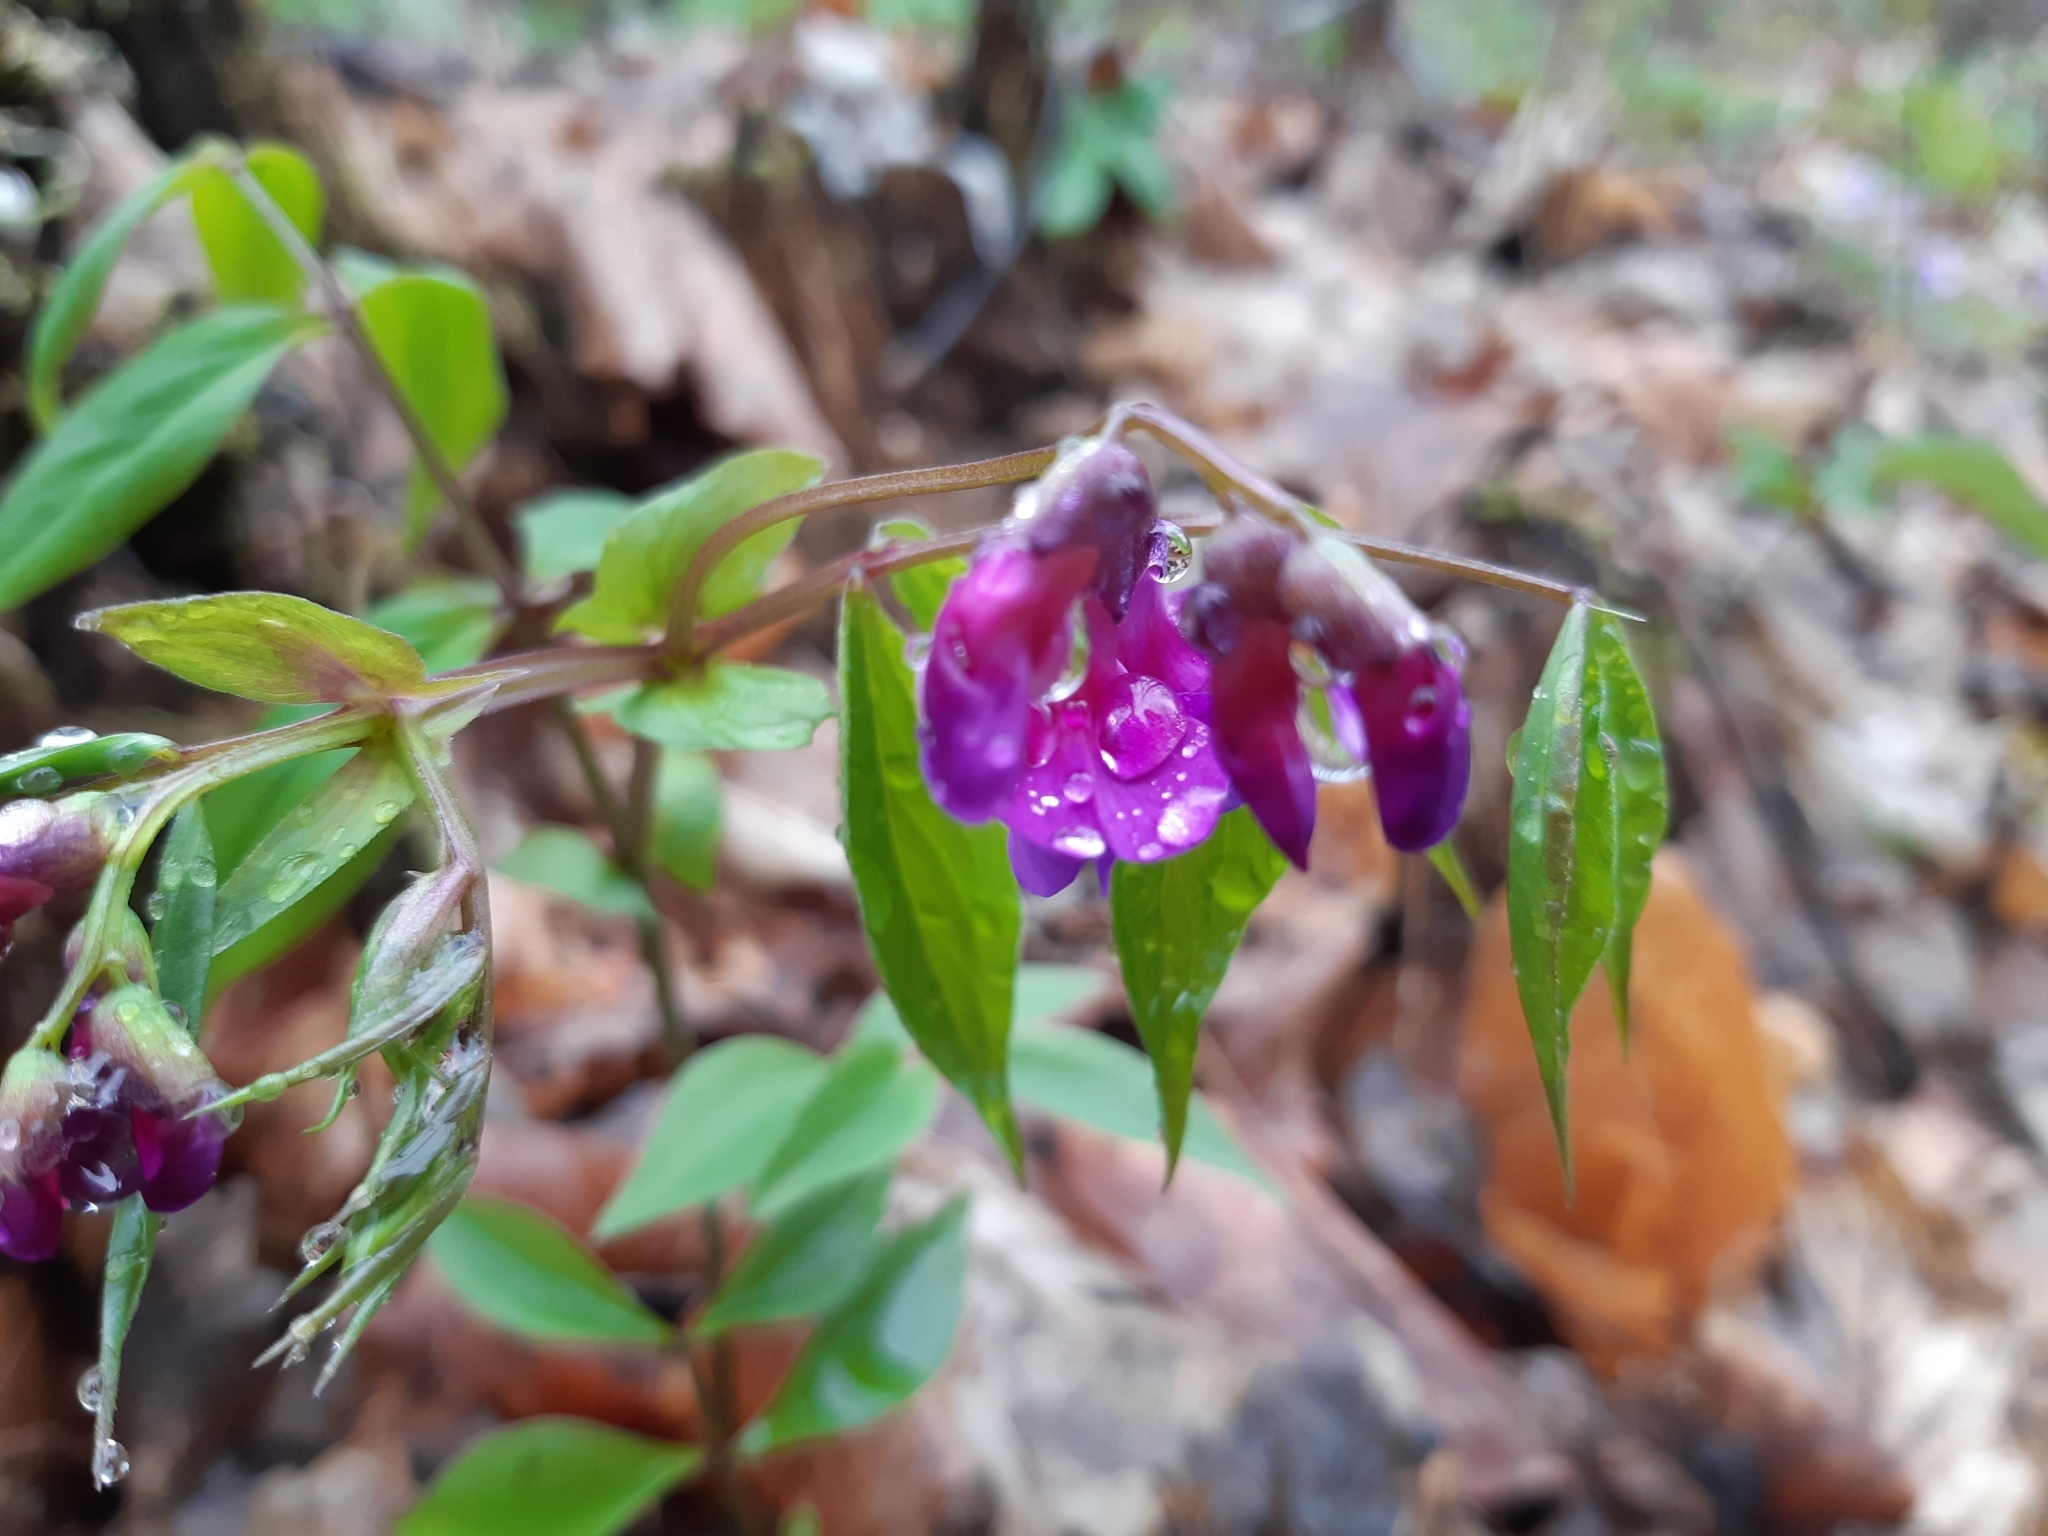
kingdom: Plantae
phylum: Tracheophyta
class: Magnoliopsida
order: Fabales
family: Fabaceae
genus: Lathyrus
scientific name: Lathyrus vernus
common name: Spring pea
